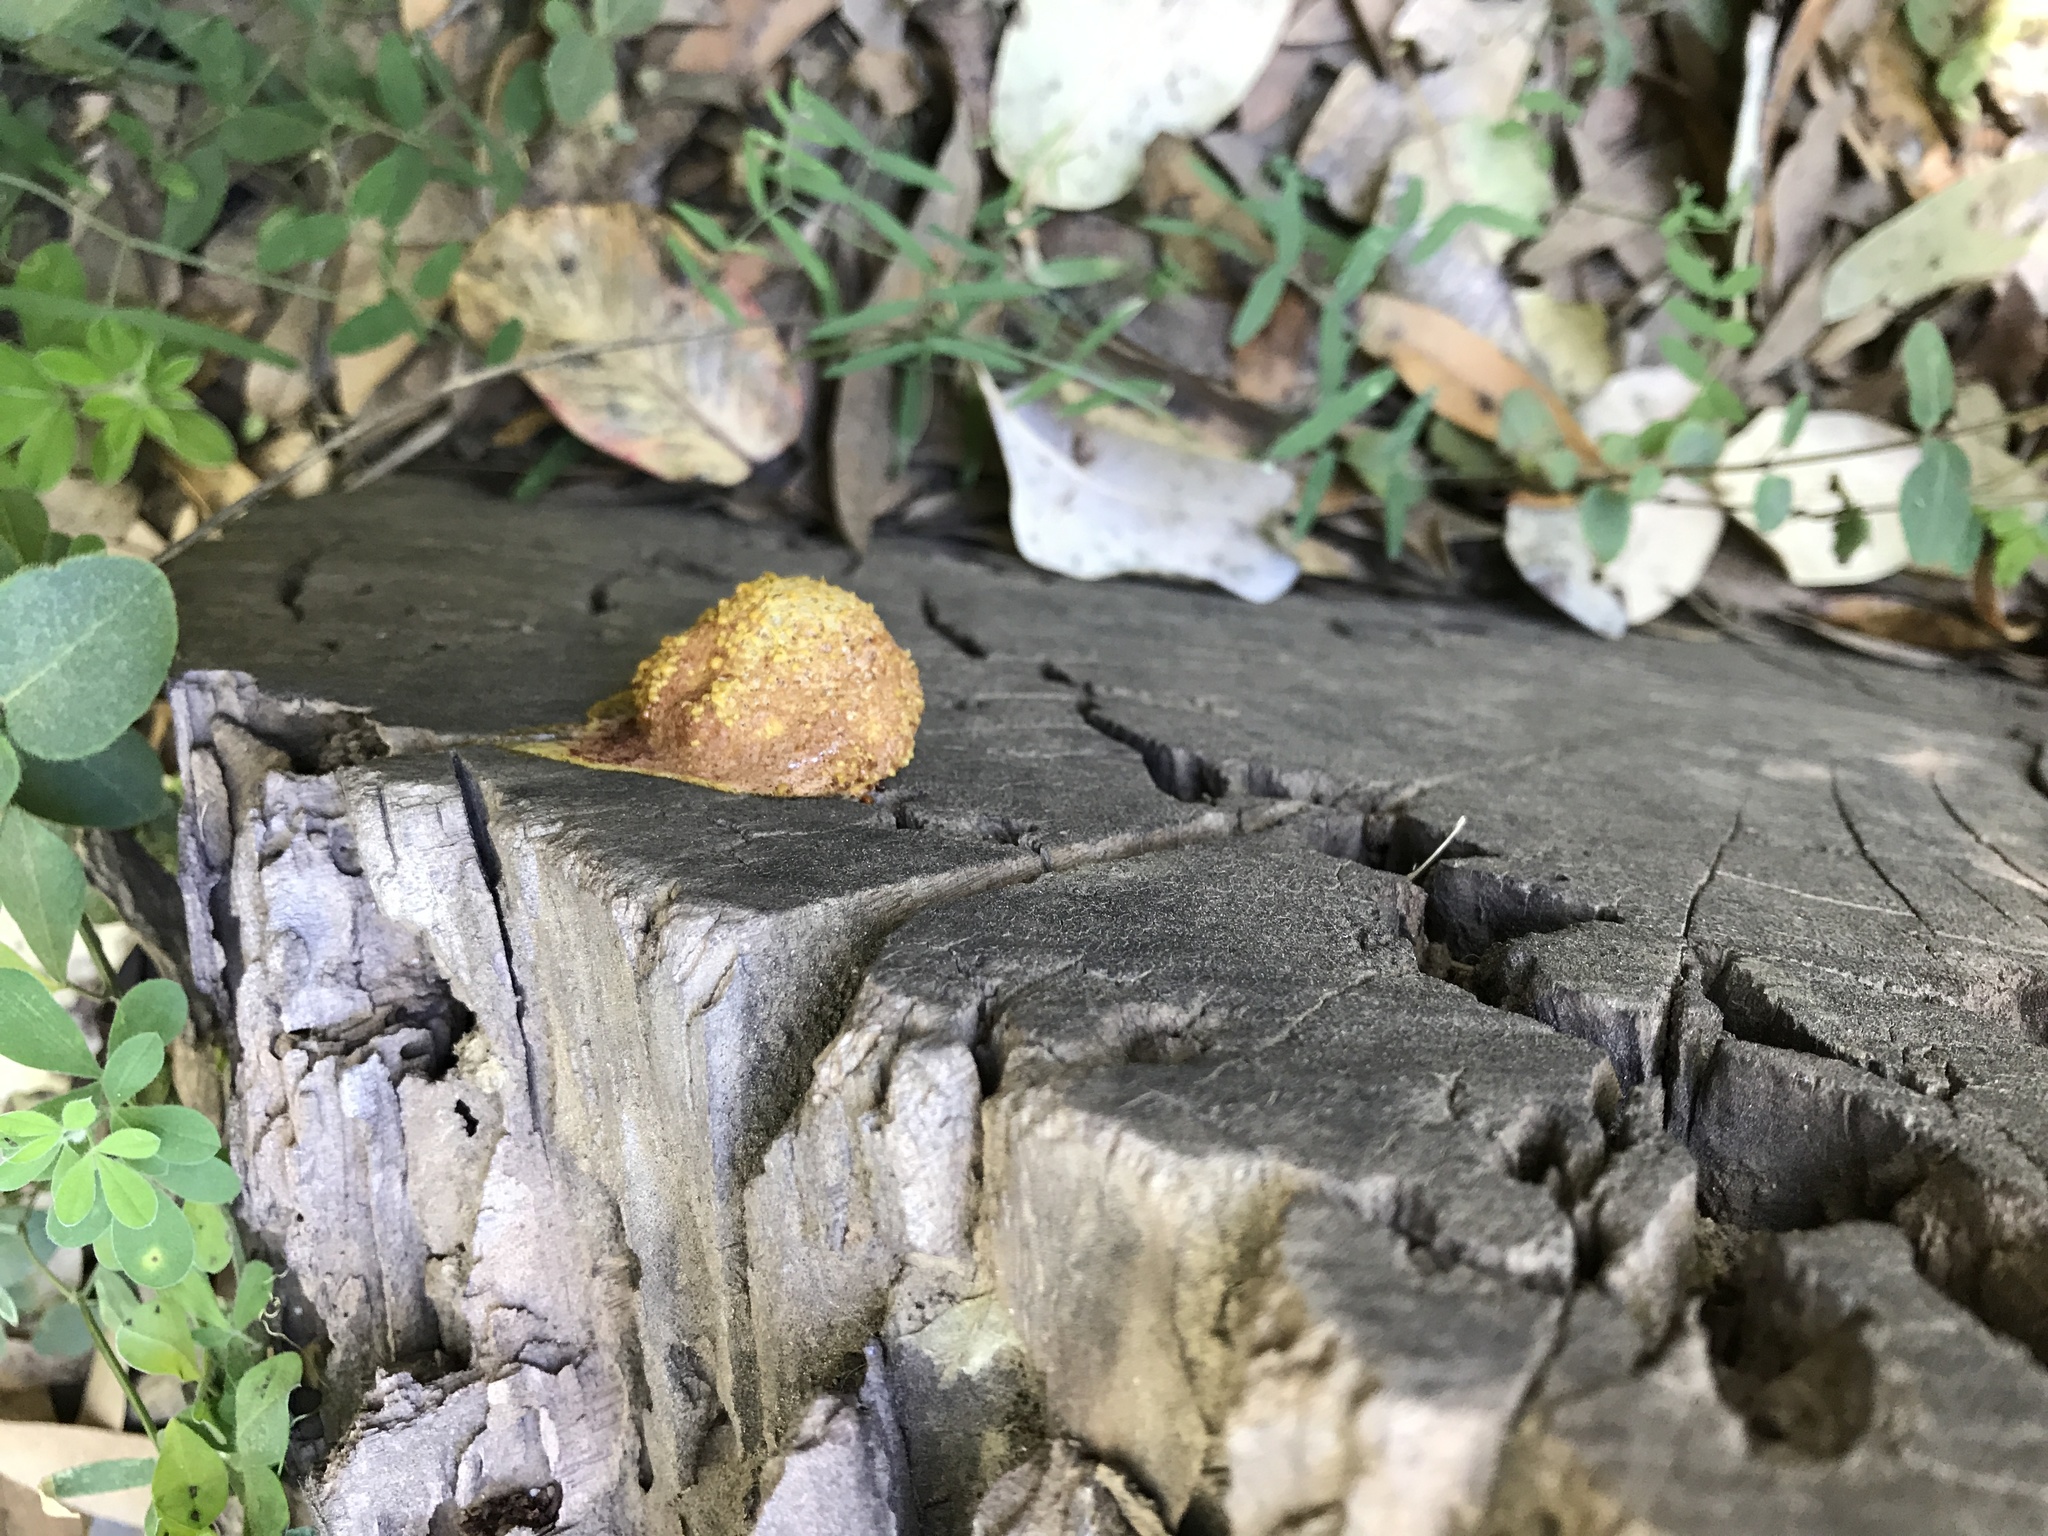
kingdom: Protozoa
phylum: Mycetozoa
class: Myxomycetes
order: Physarales
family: Physaraceae
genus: Fuligo
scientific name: Fuligo septica
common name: Dog vomit slime mold
